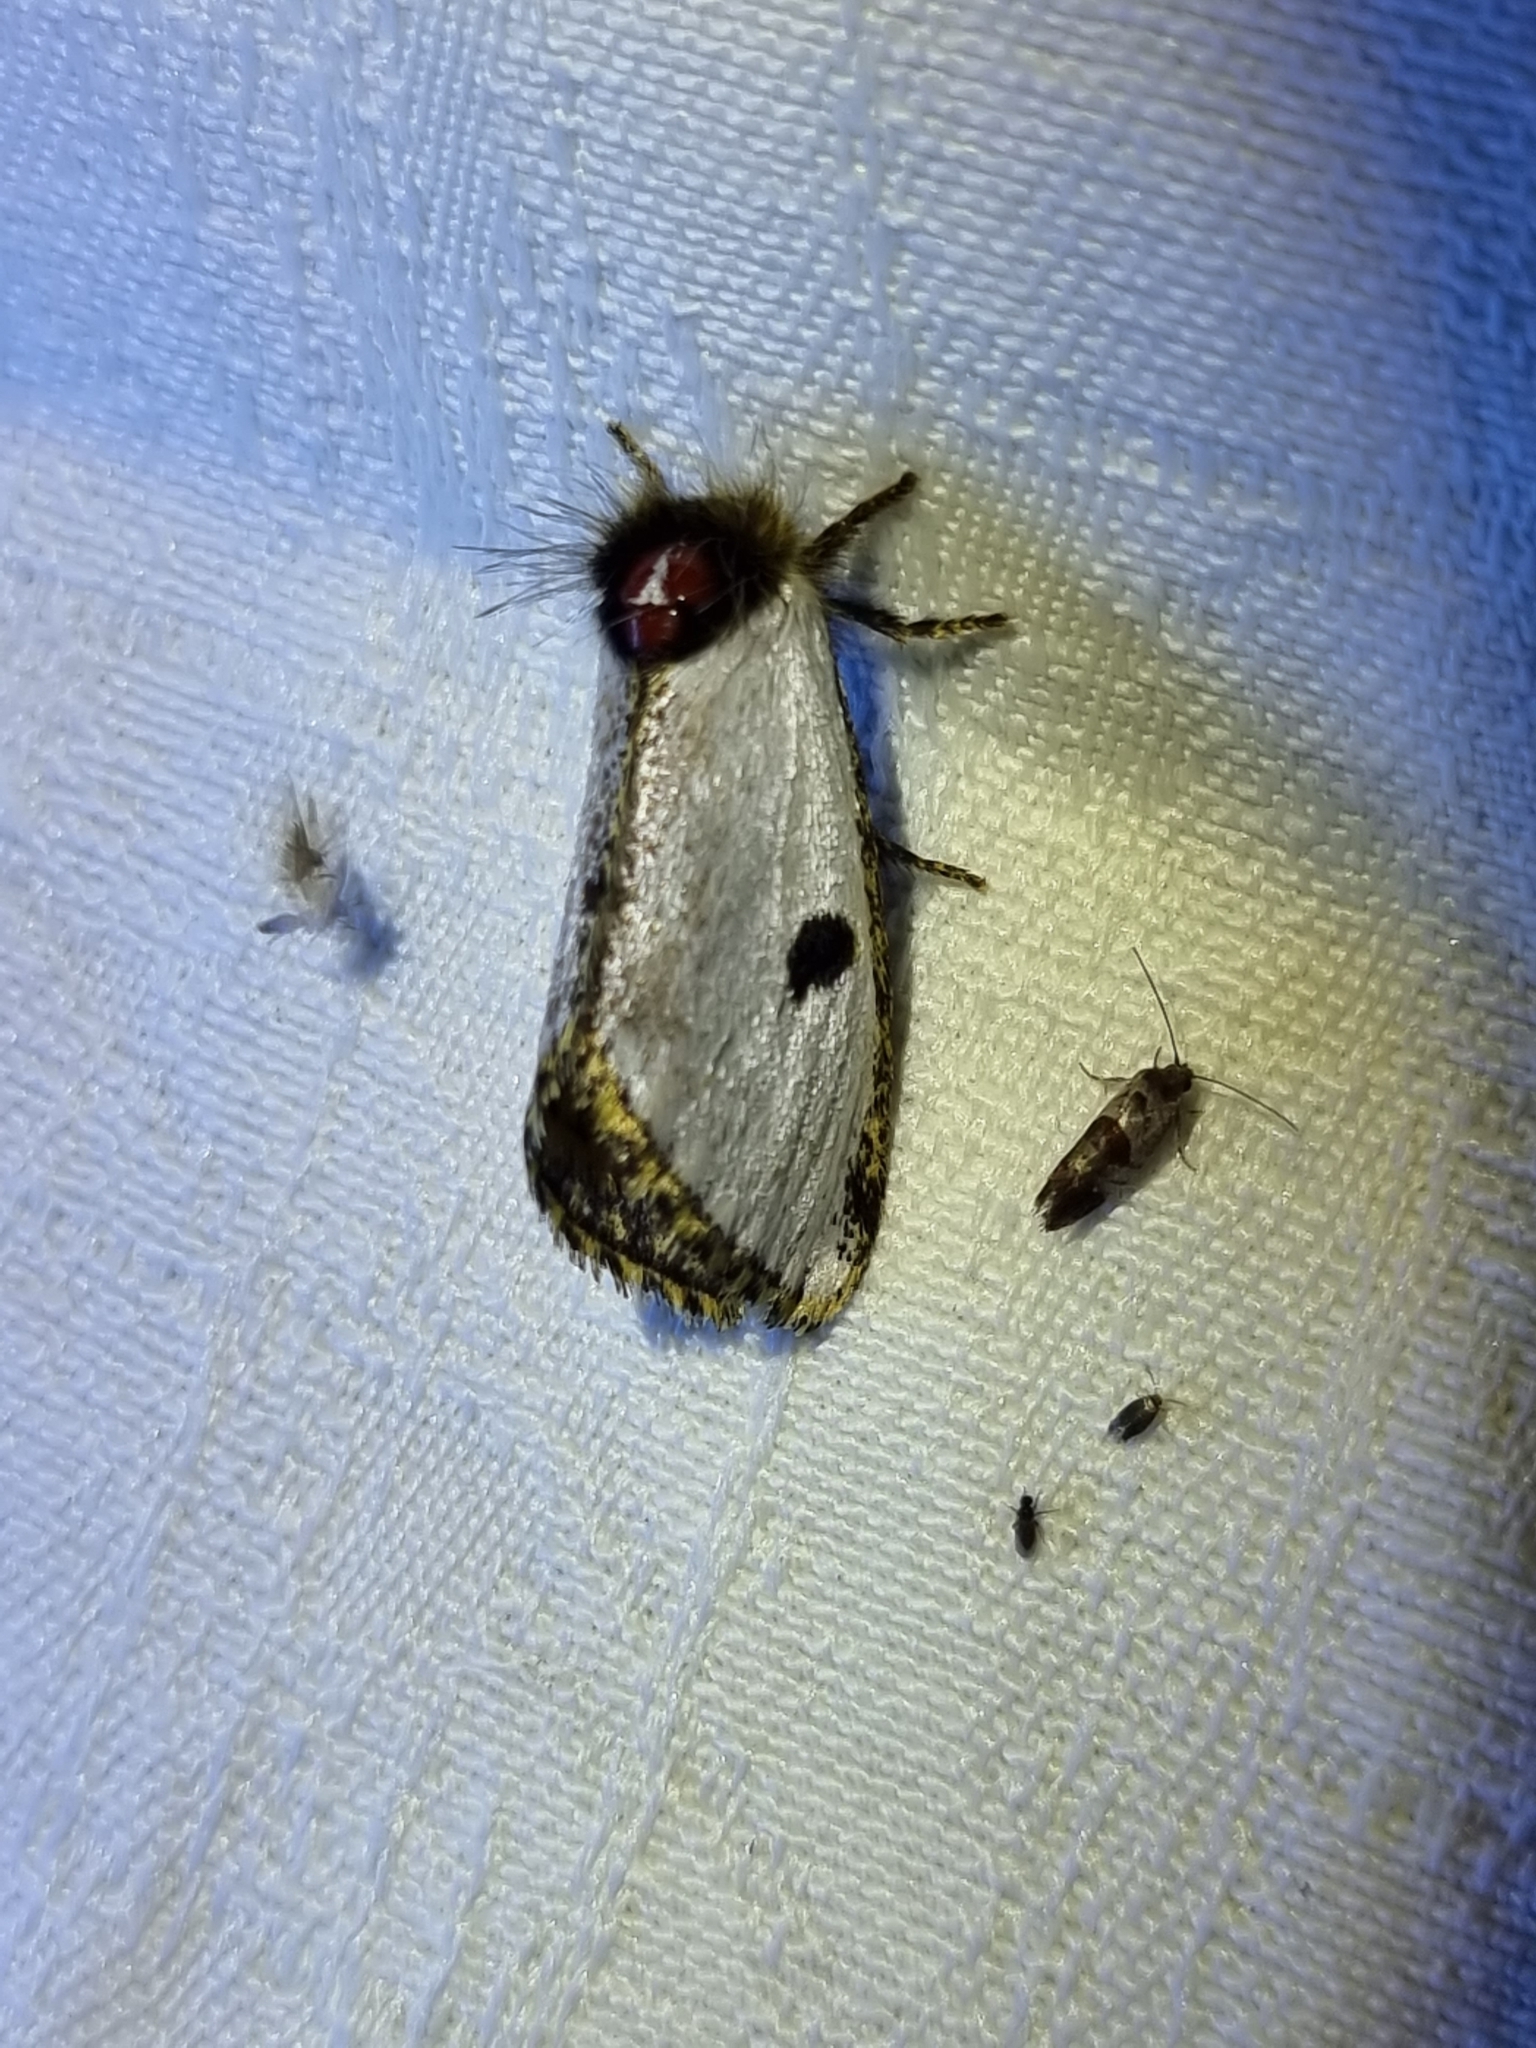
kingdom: Animalia
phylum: Arthropoda
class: Insecta
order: Lepidoptera
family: Notodontidae
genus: Epicoma
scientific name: Epicoma melanospila
